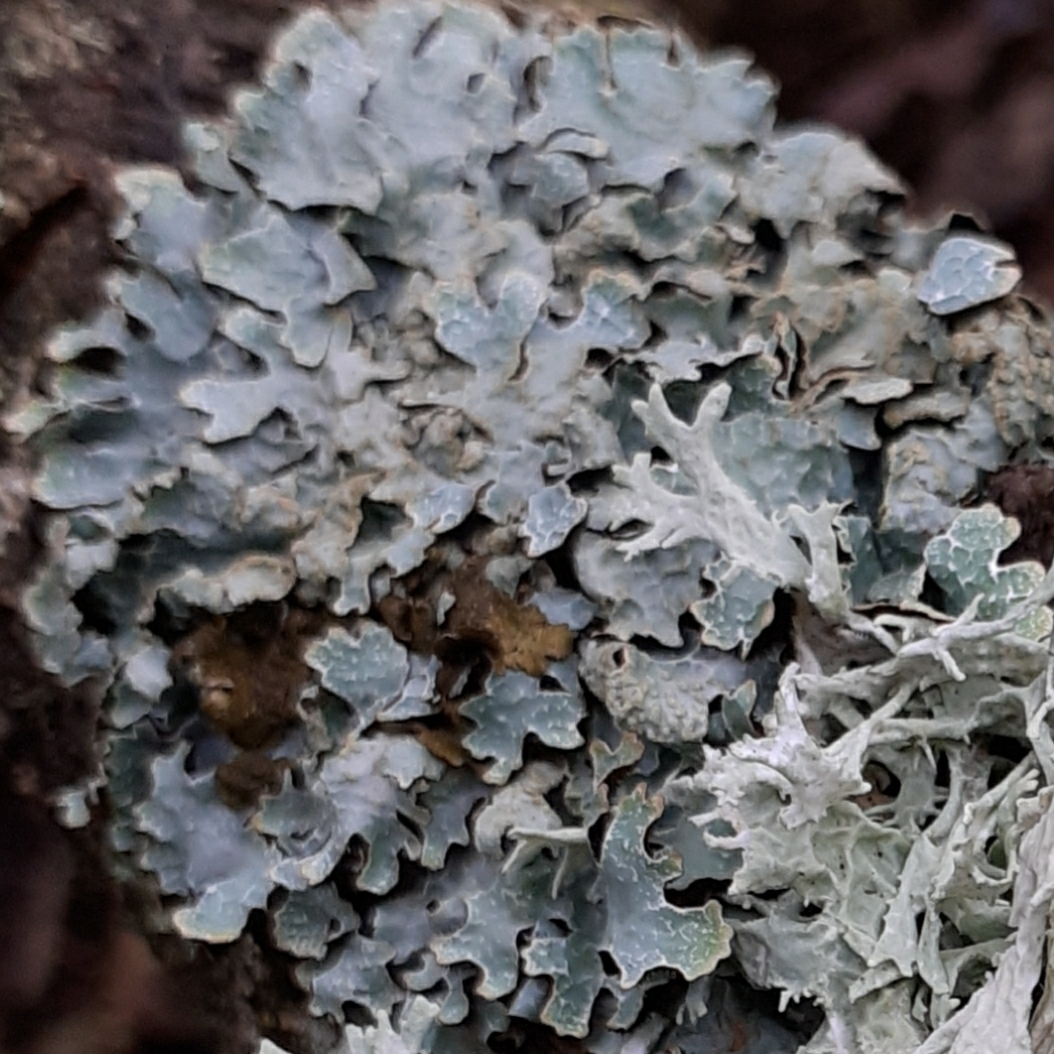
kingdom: Fungi
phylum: Ascomycota
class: Lecanoromycetes
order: Lecanorales
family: Parmeliaceae
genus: Parmelia
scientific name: Parmelia sulcata
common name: Netted shield lichen
